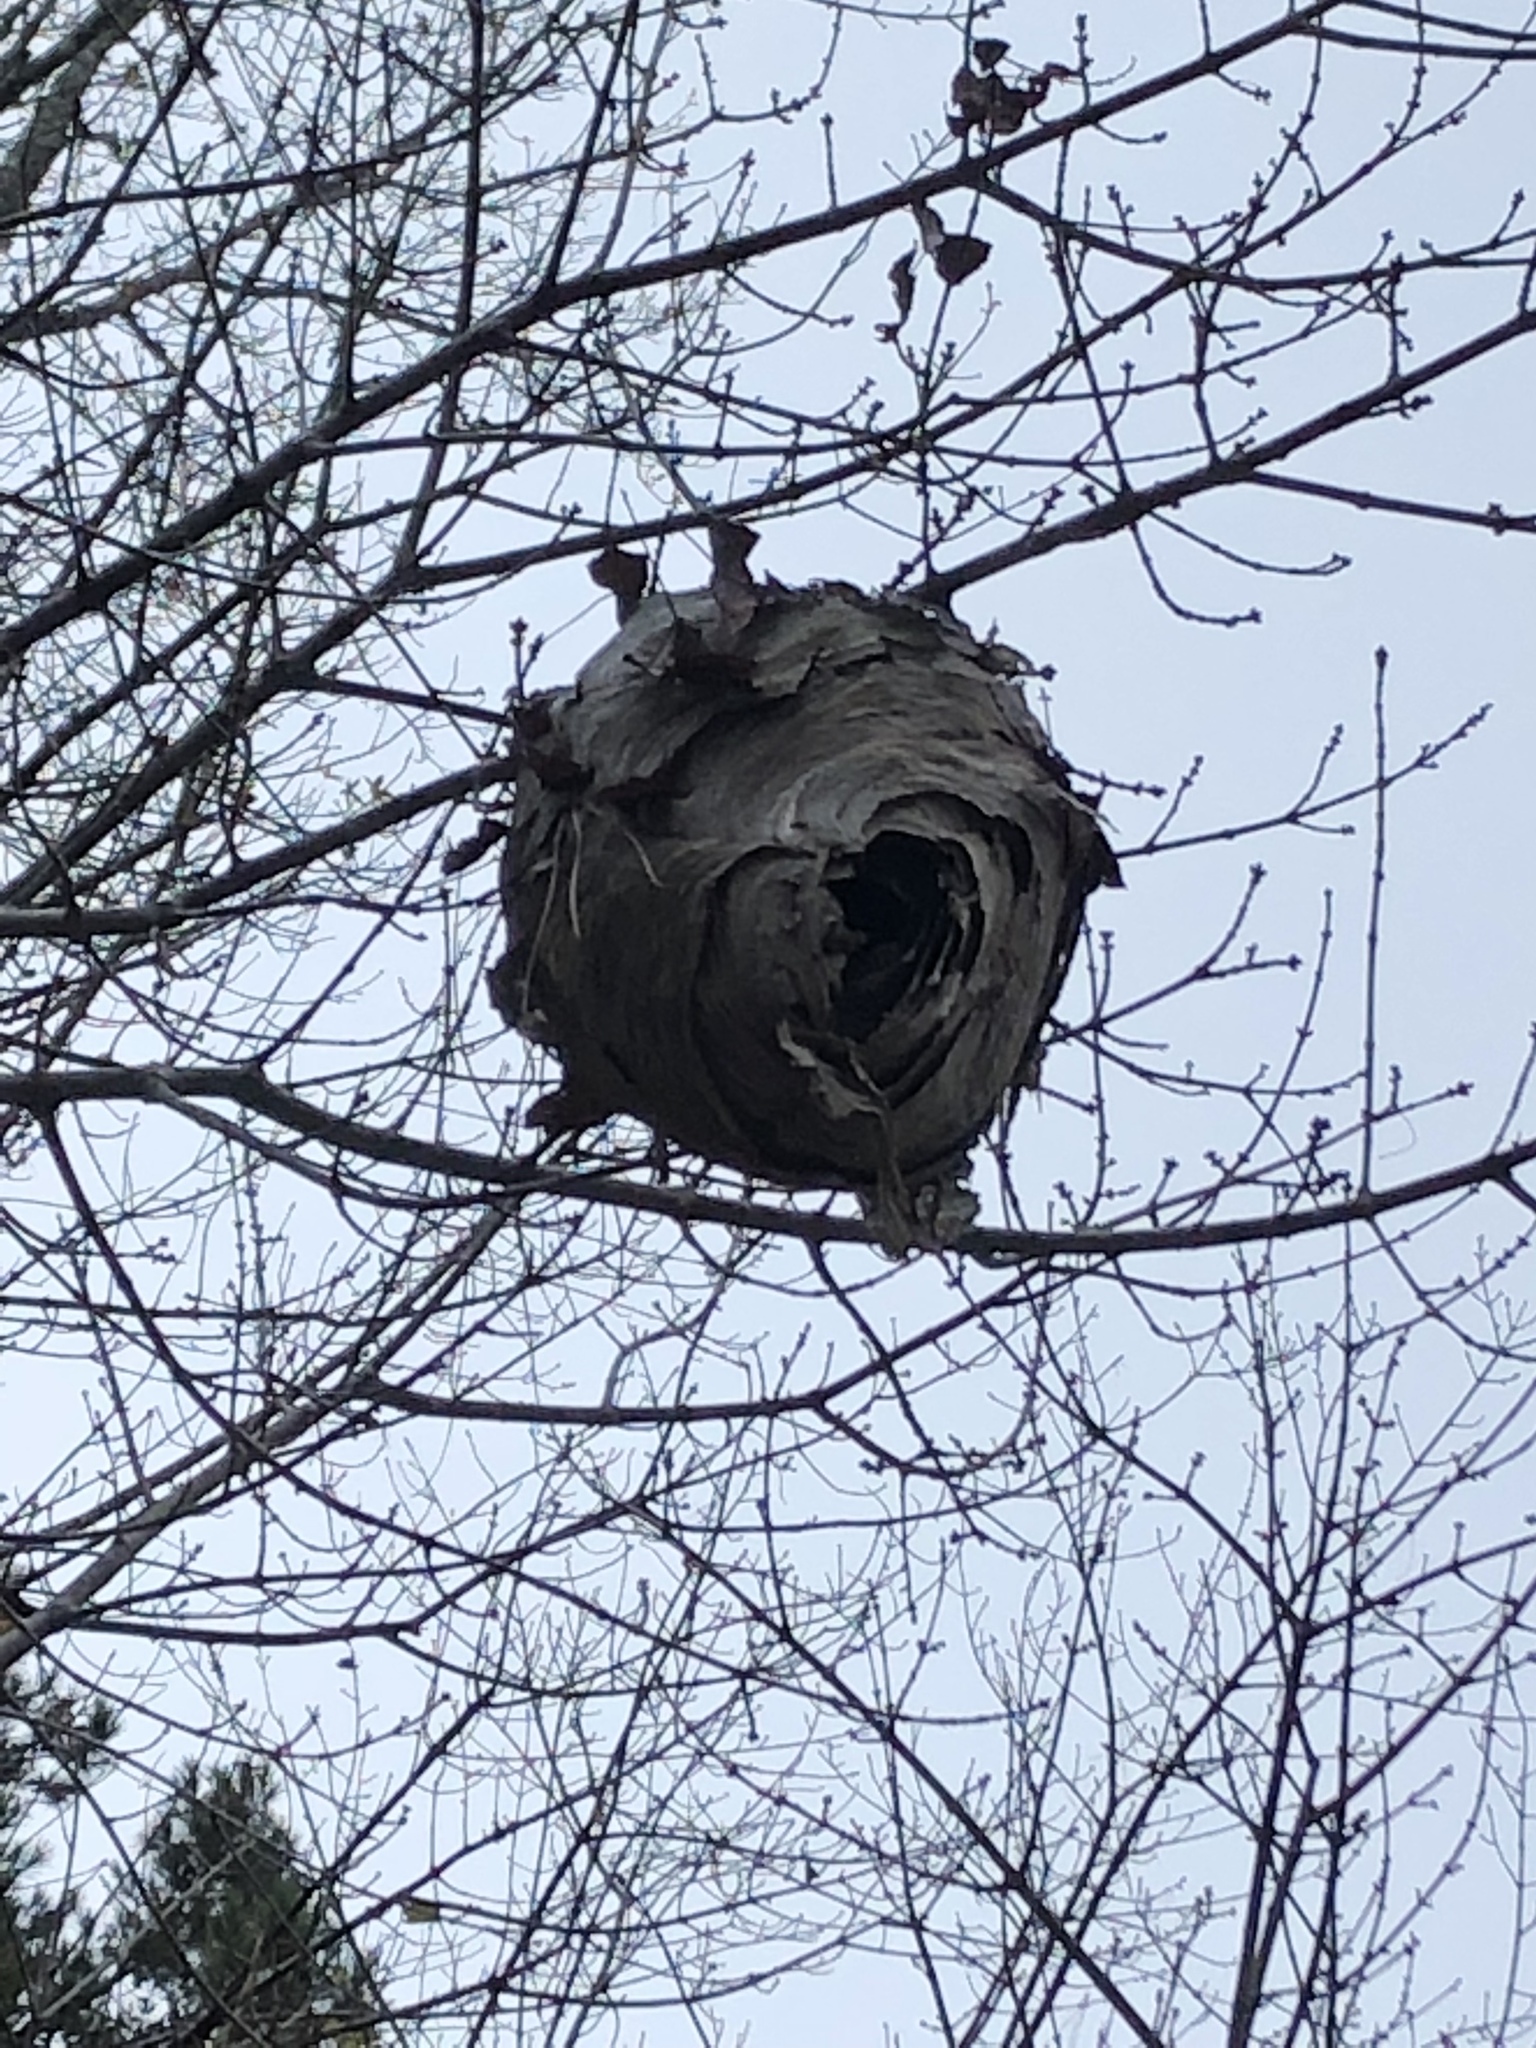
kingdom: Animalia
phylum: Arthropoda
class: Insecta
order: Hymenoptera
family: Vespidae
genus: Dolichovespula
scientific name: Dolichovespula
